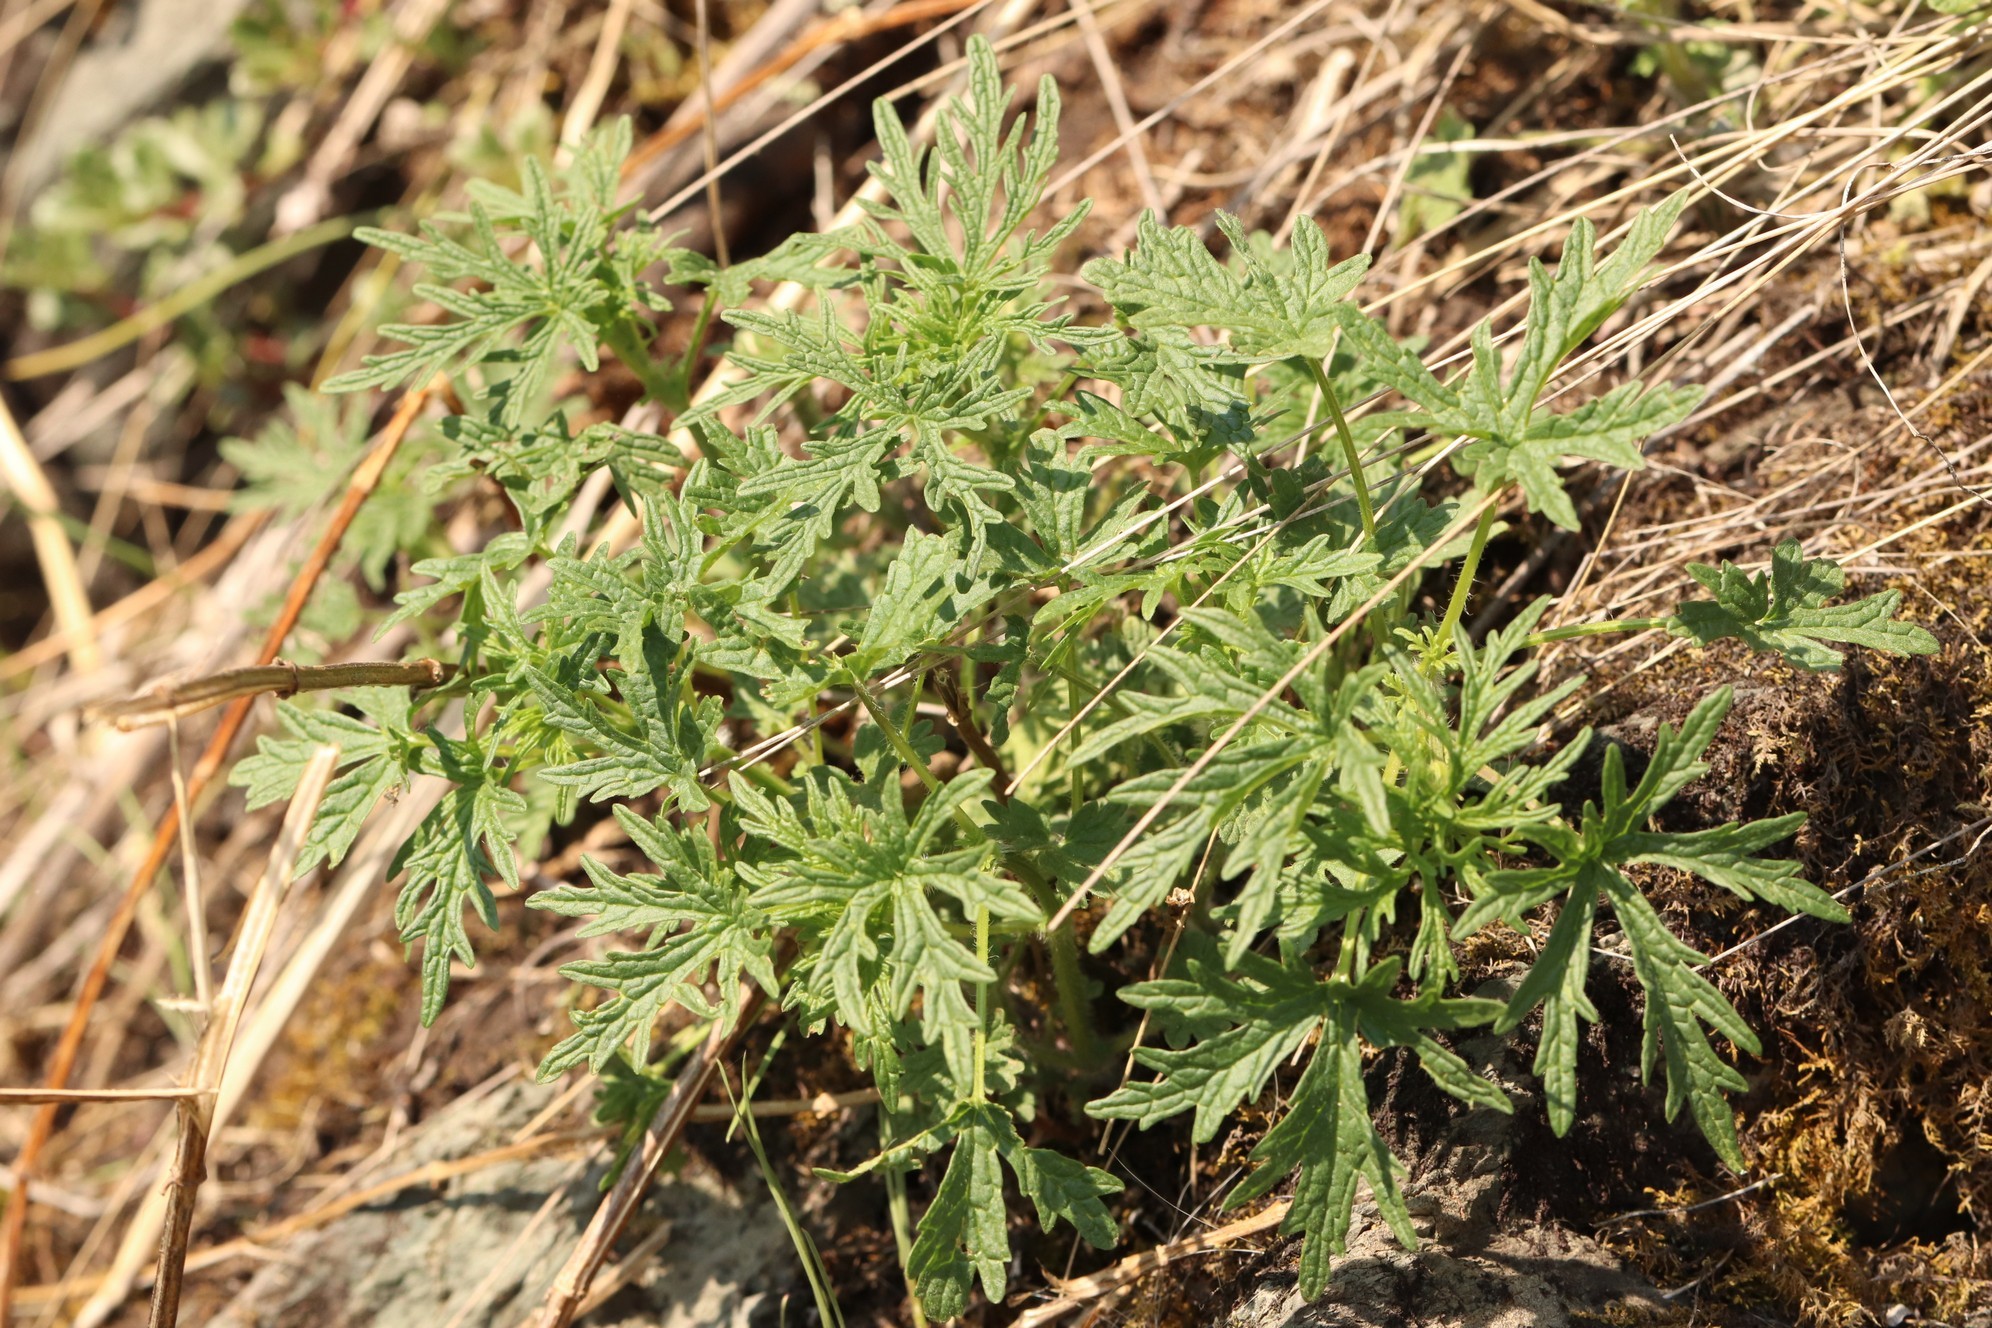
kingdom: Plantae
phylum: Tracheophyta
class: Magnoliopsida
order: Lamiales
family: Lamiaceae
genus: Leonurus
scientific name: Leonurus tataricus
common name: Chinese motherwort
